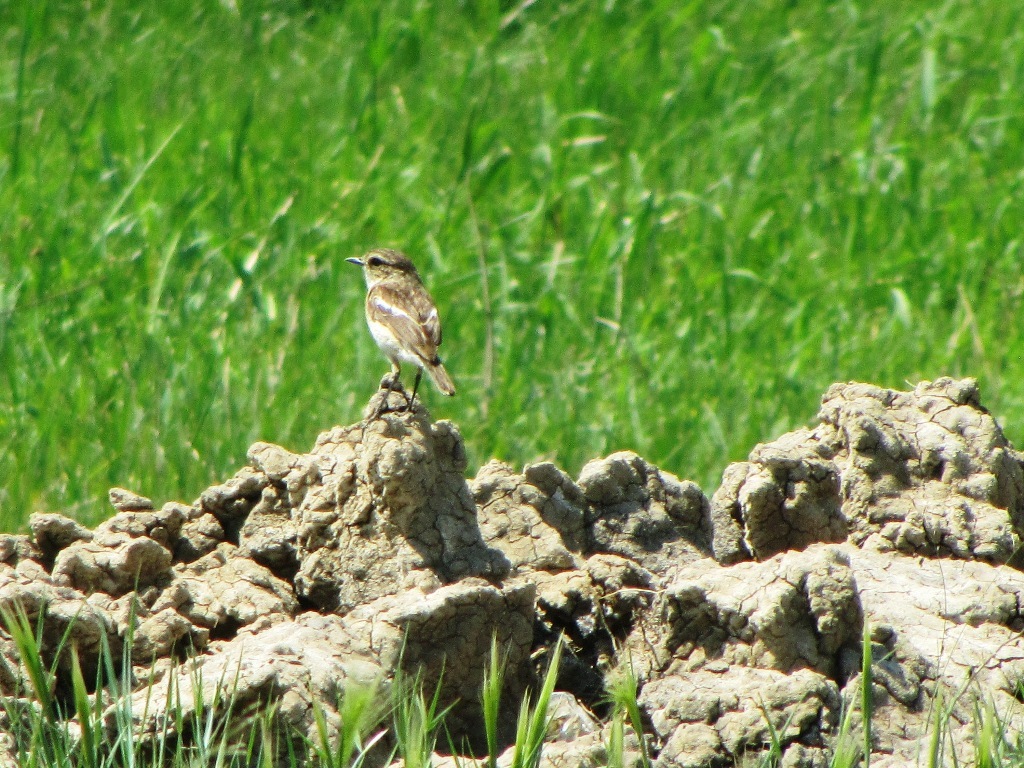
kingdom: Animalia
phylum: Chordata
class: Aves
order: Passeriformes
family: Muscicapidae
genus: Saxicola
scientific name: Saxicola maurus
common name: Siberian stonechat
